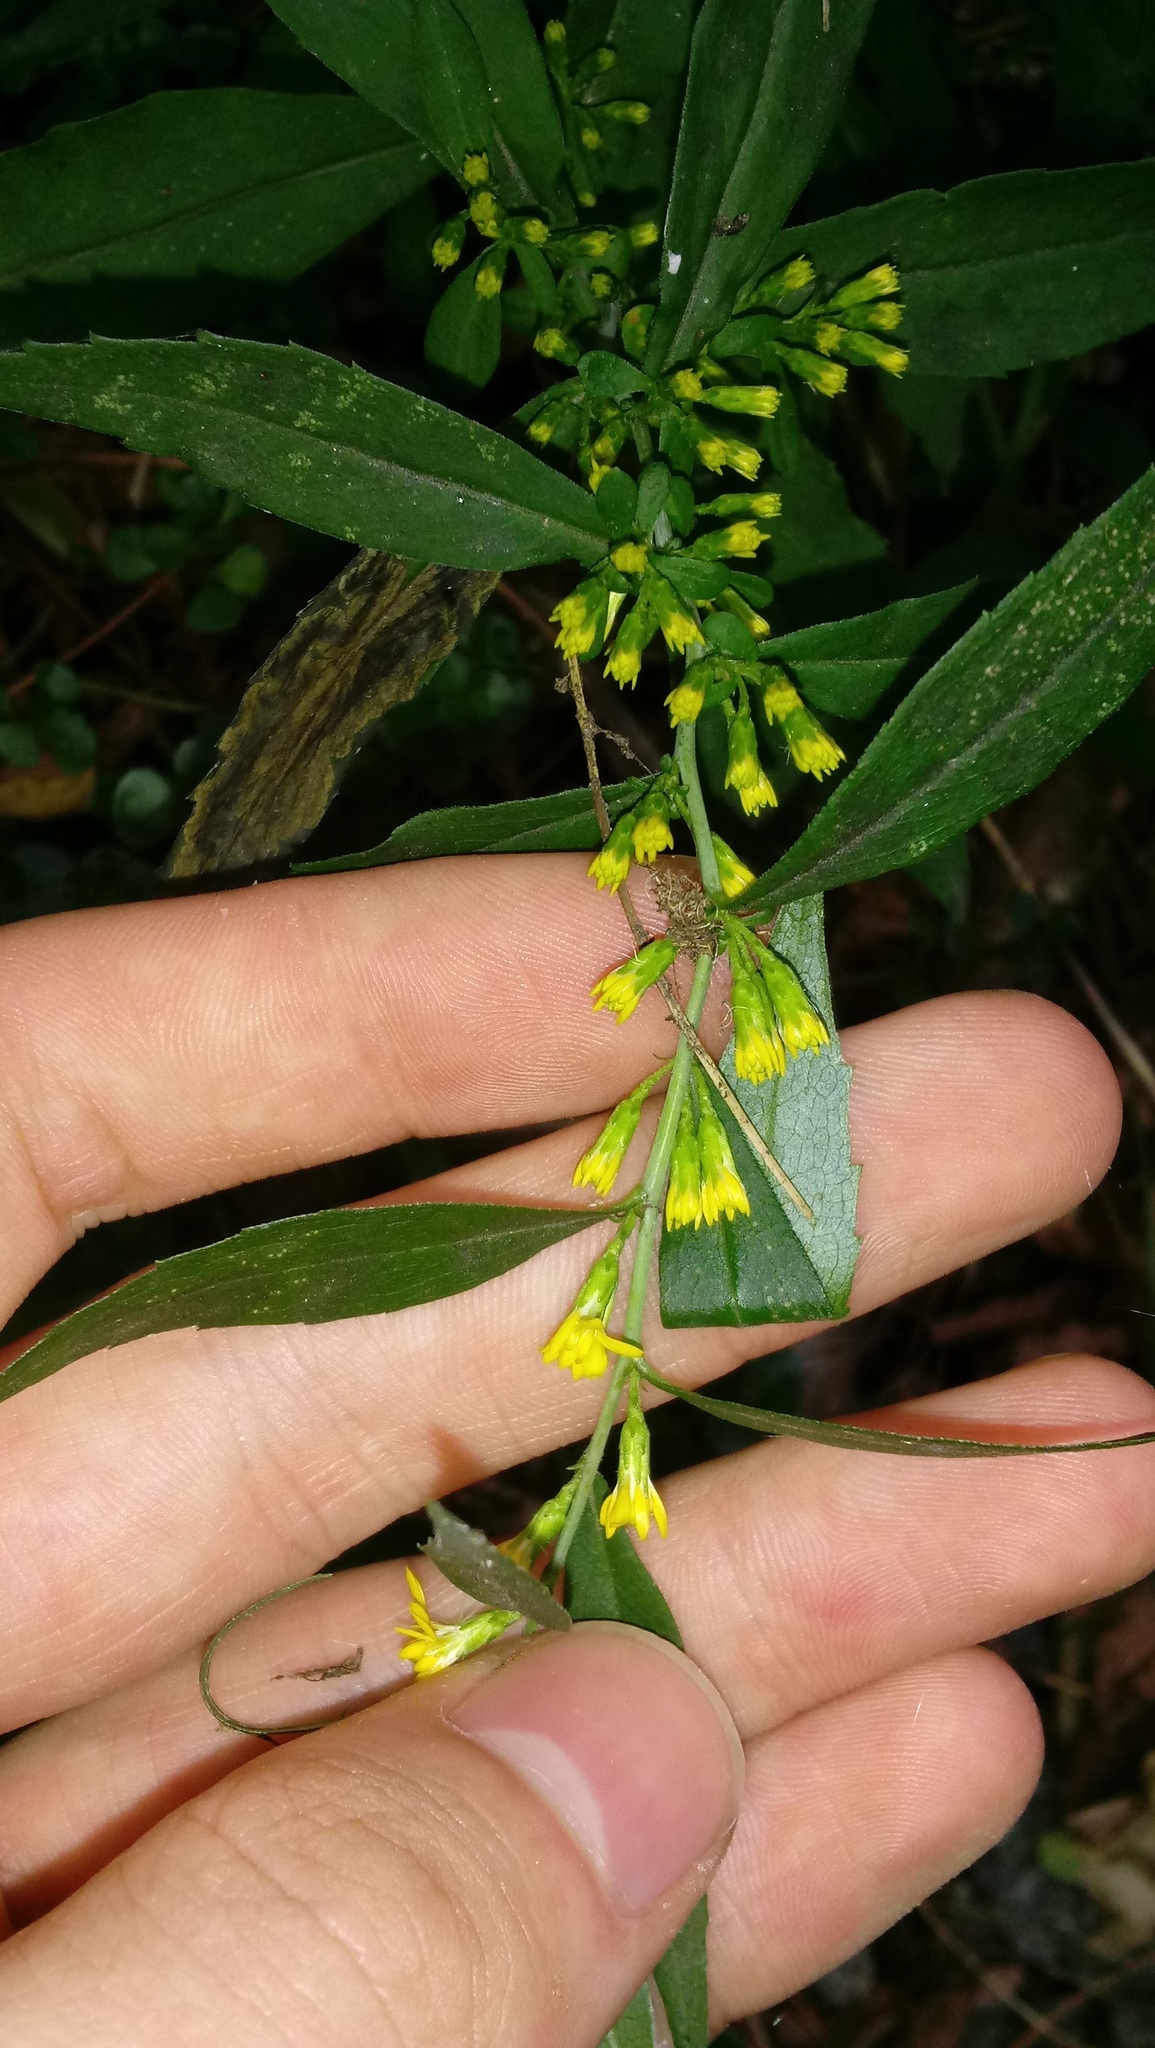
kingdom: Plantae
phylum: Tracheophyta
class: Magnoliopsida
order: Asterales
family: Asteraceae
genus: Solidago
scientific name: Solidago caesia
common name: Woodland goldenrod
